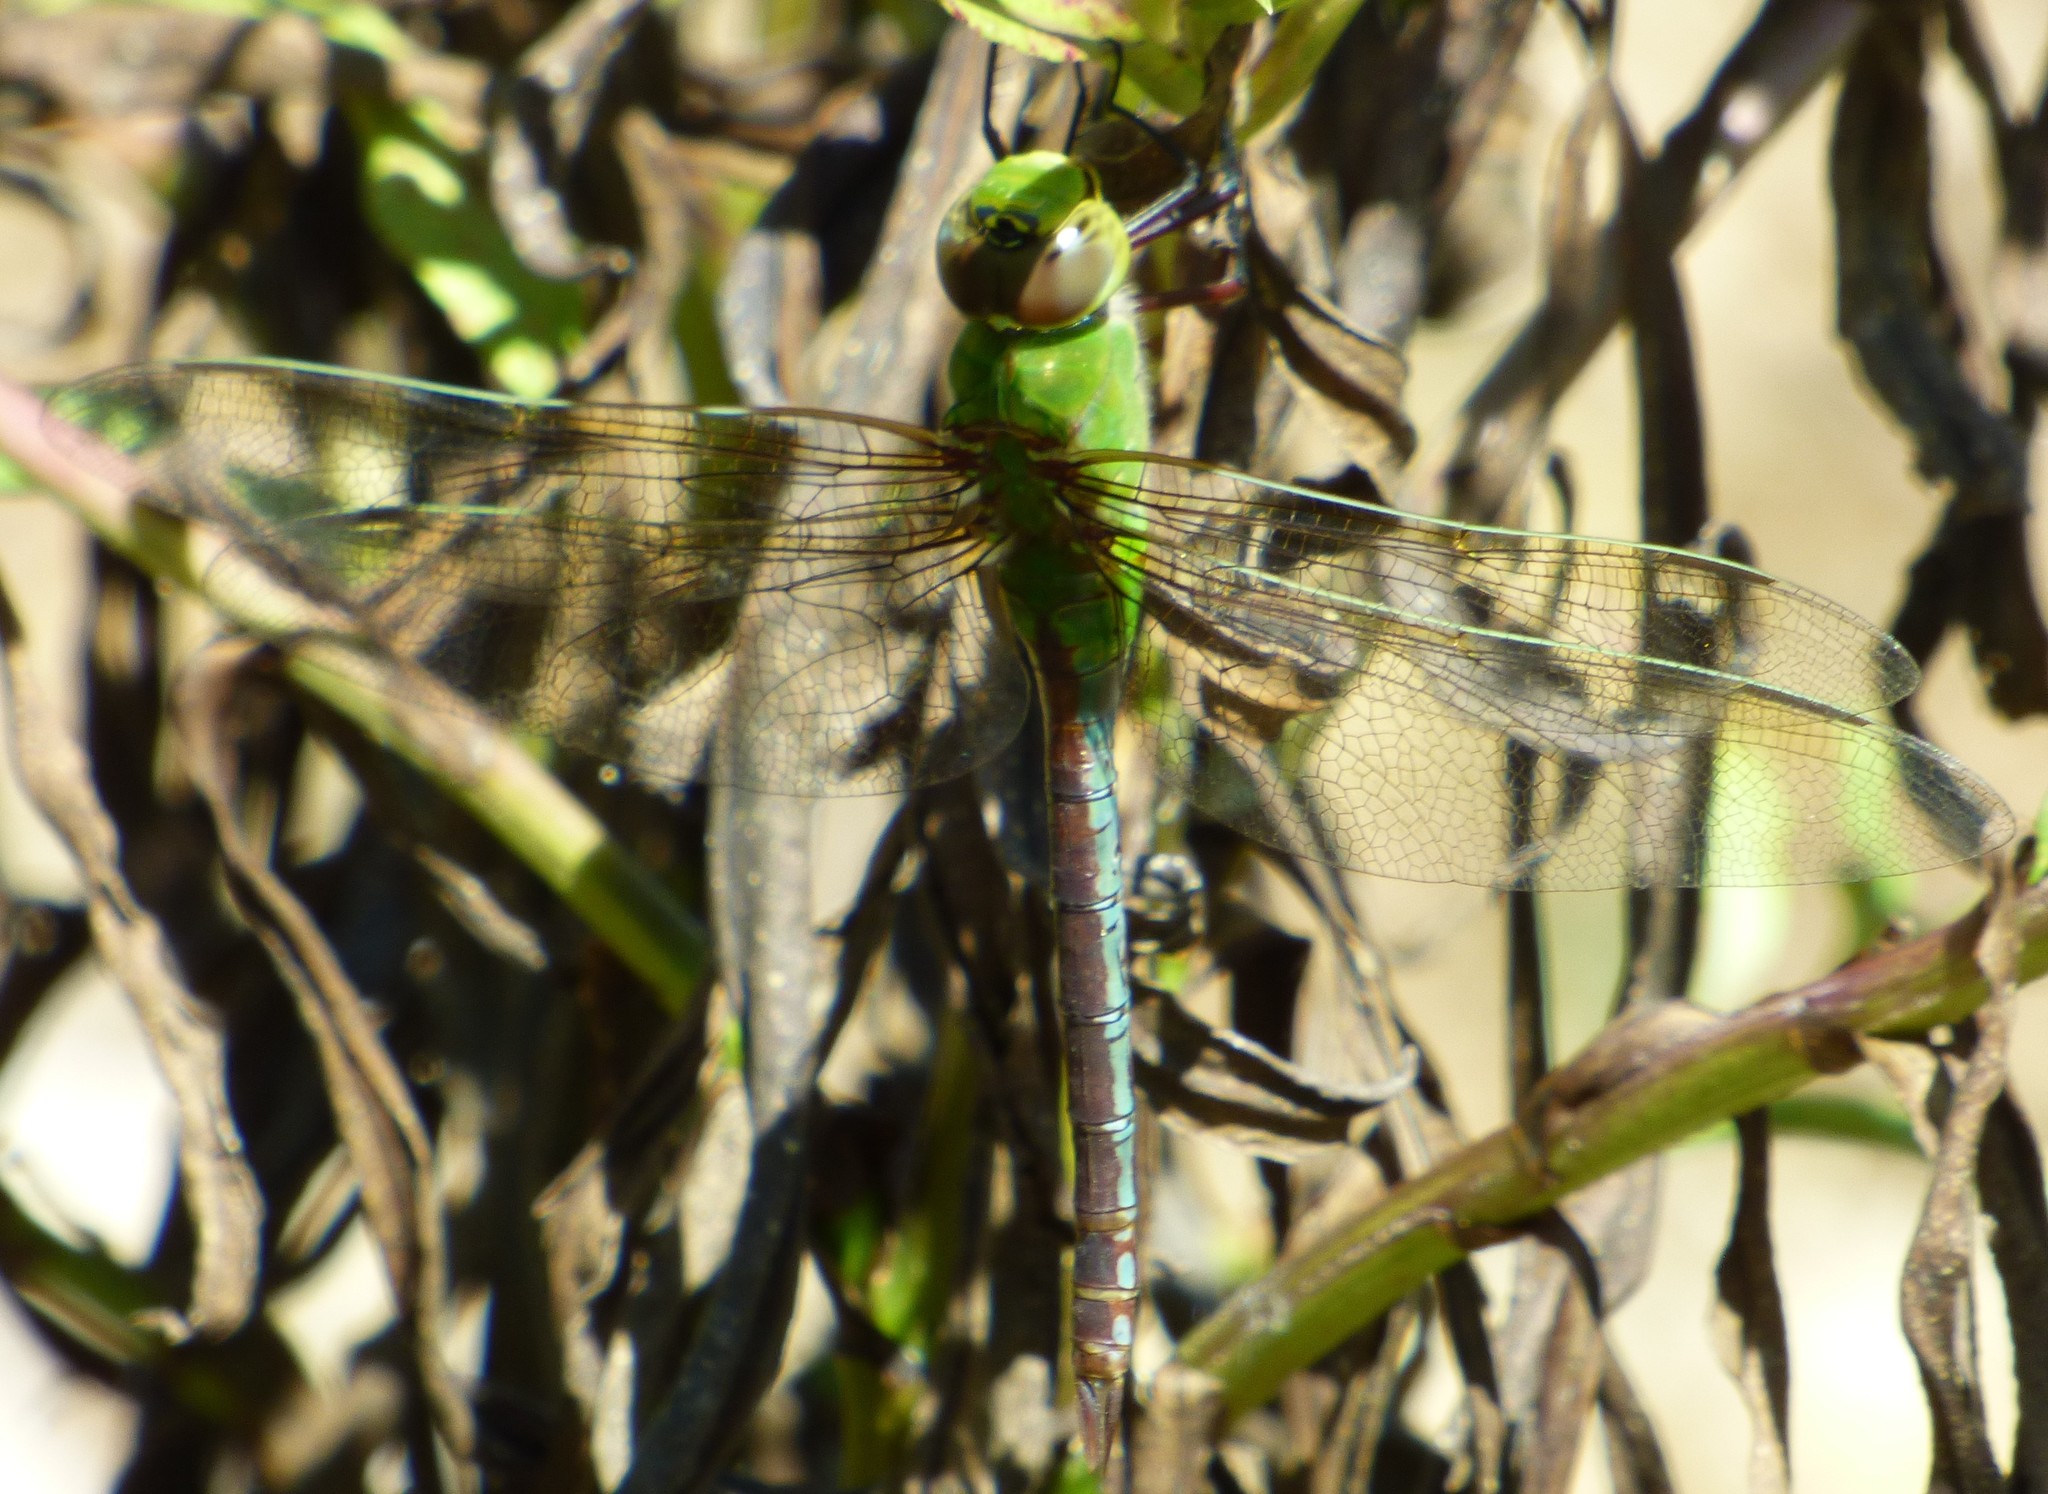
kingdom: Animalia
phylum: Arthropoda
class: Insecta
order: Odonata
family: Aeshnidae
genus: Anax
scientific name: Anax junius
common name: Common green darner
